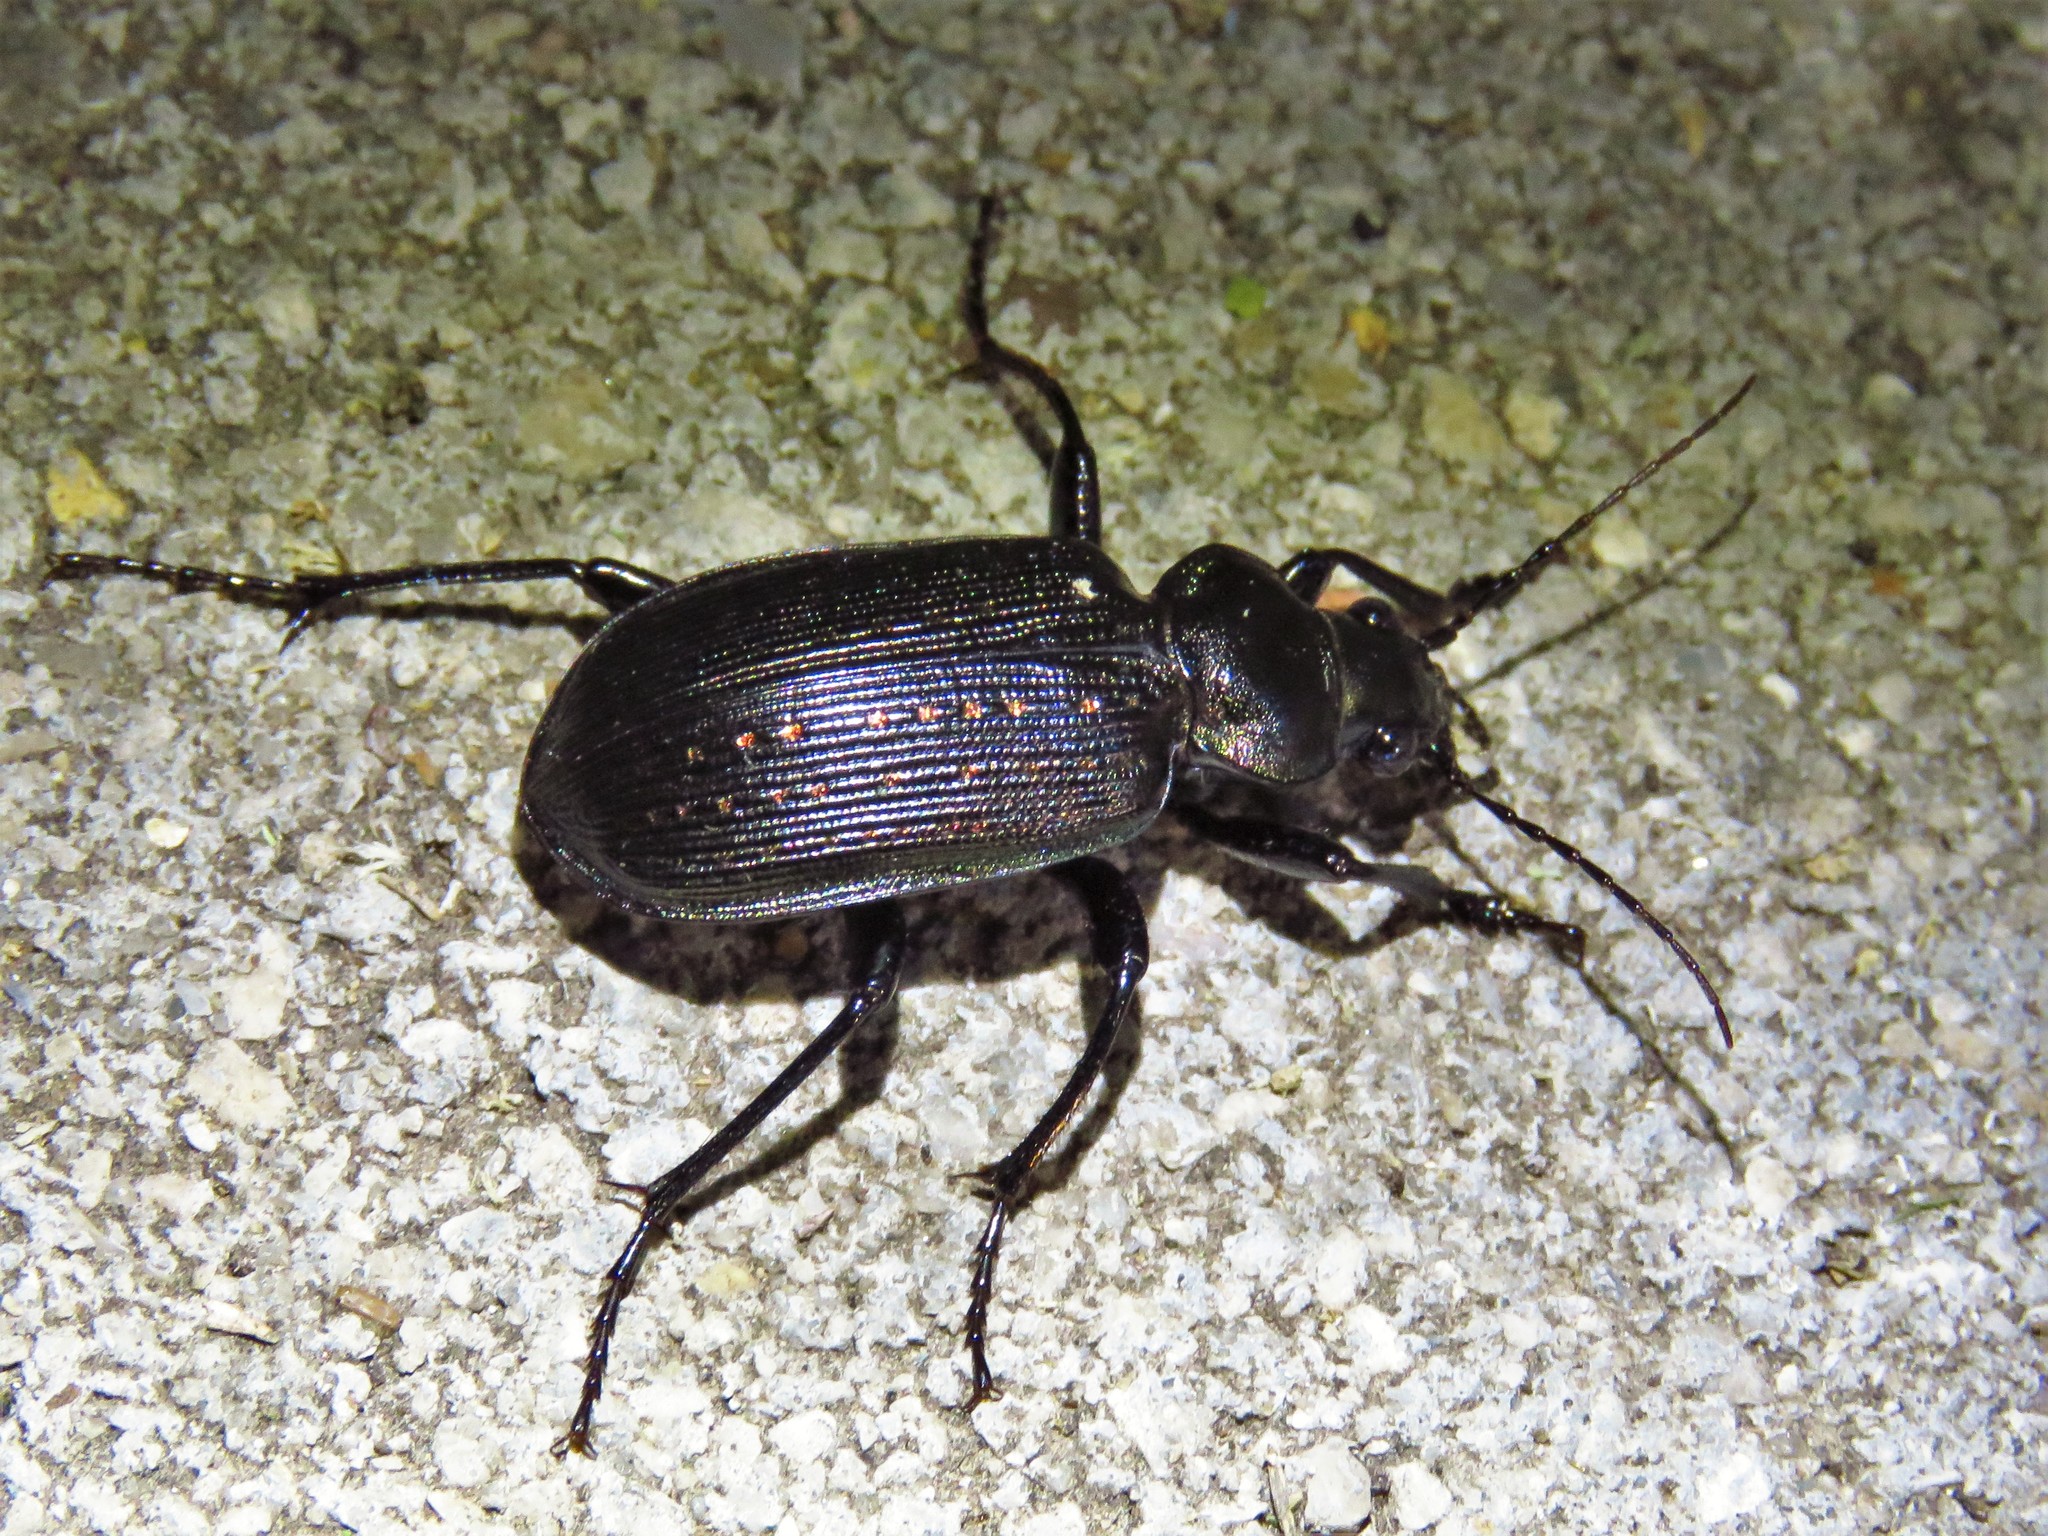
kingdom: Animalia
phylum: Arthropoda
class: Insecta
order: Coleoptera
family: Carabidae
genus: Calosoma
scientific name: Calosoma sayi
